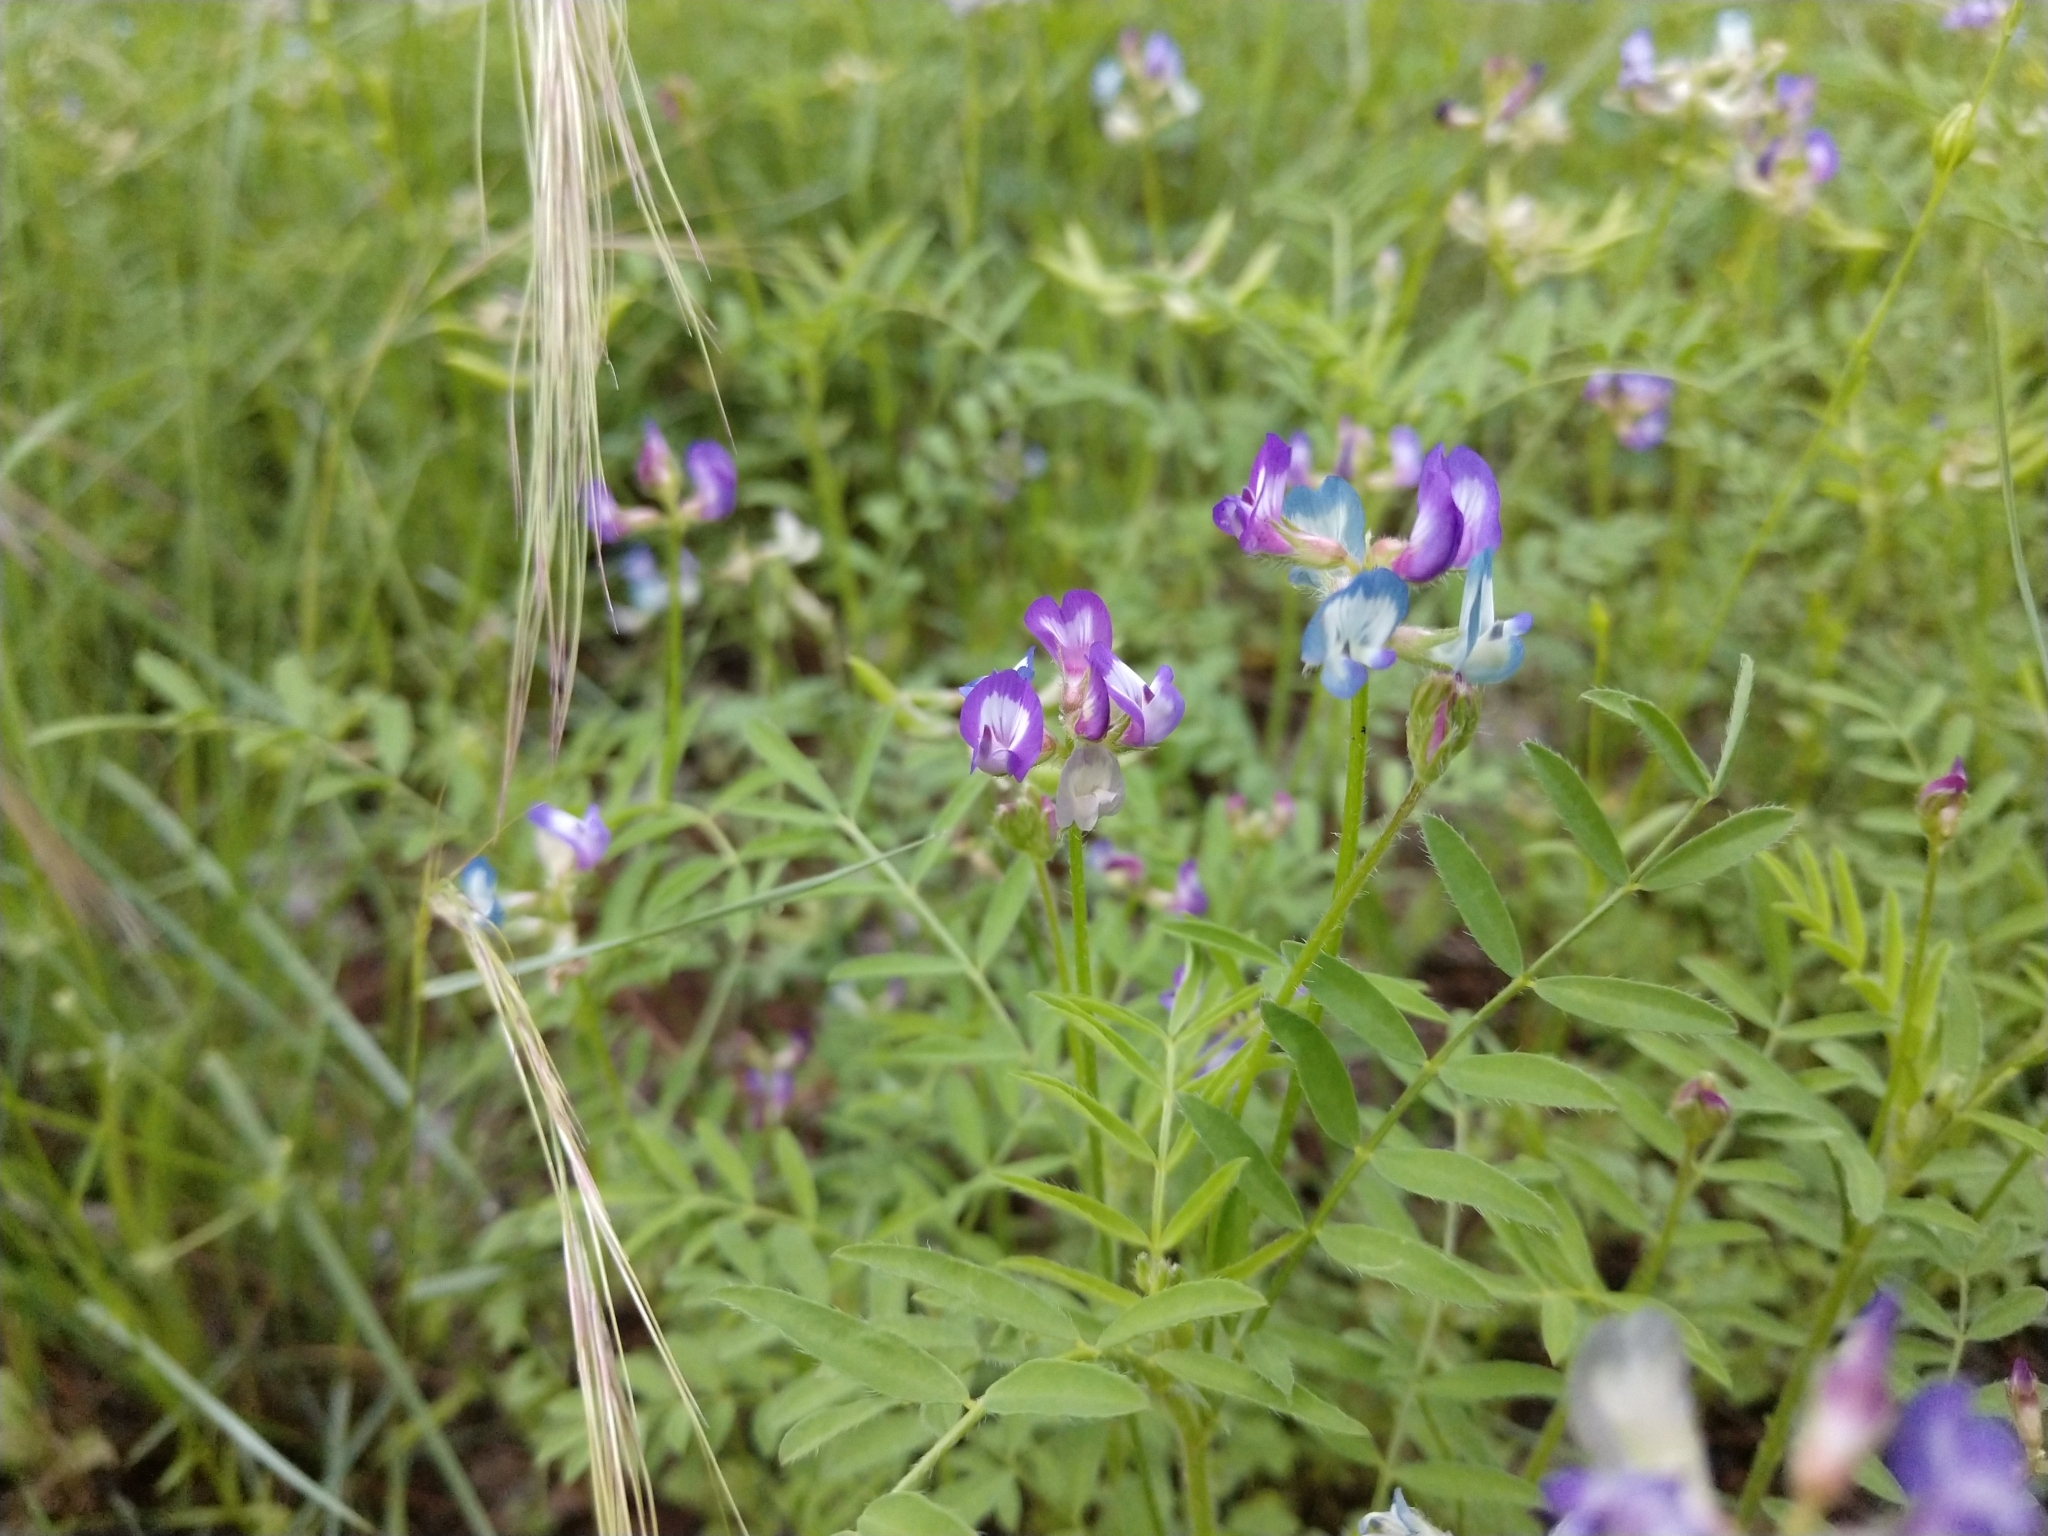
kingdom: Plantae
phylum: Tracheophyta
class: Magnoliopsida
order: Fabales
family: Fabaceae
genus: Astragalus
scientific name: Astragalus nuttallianus
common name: Smallflowered milkvetch
